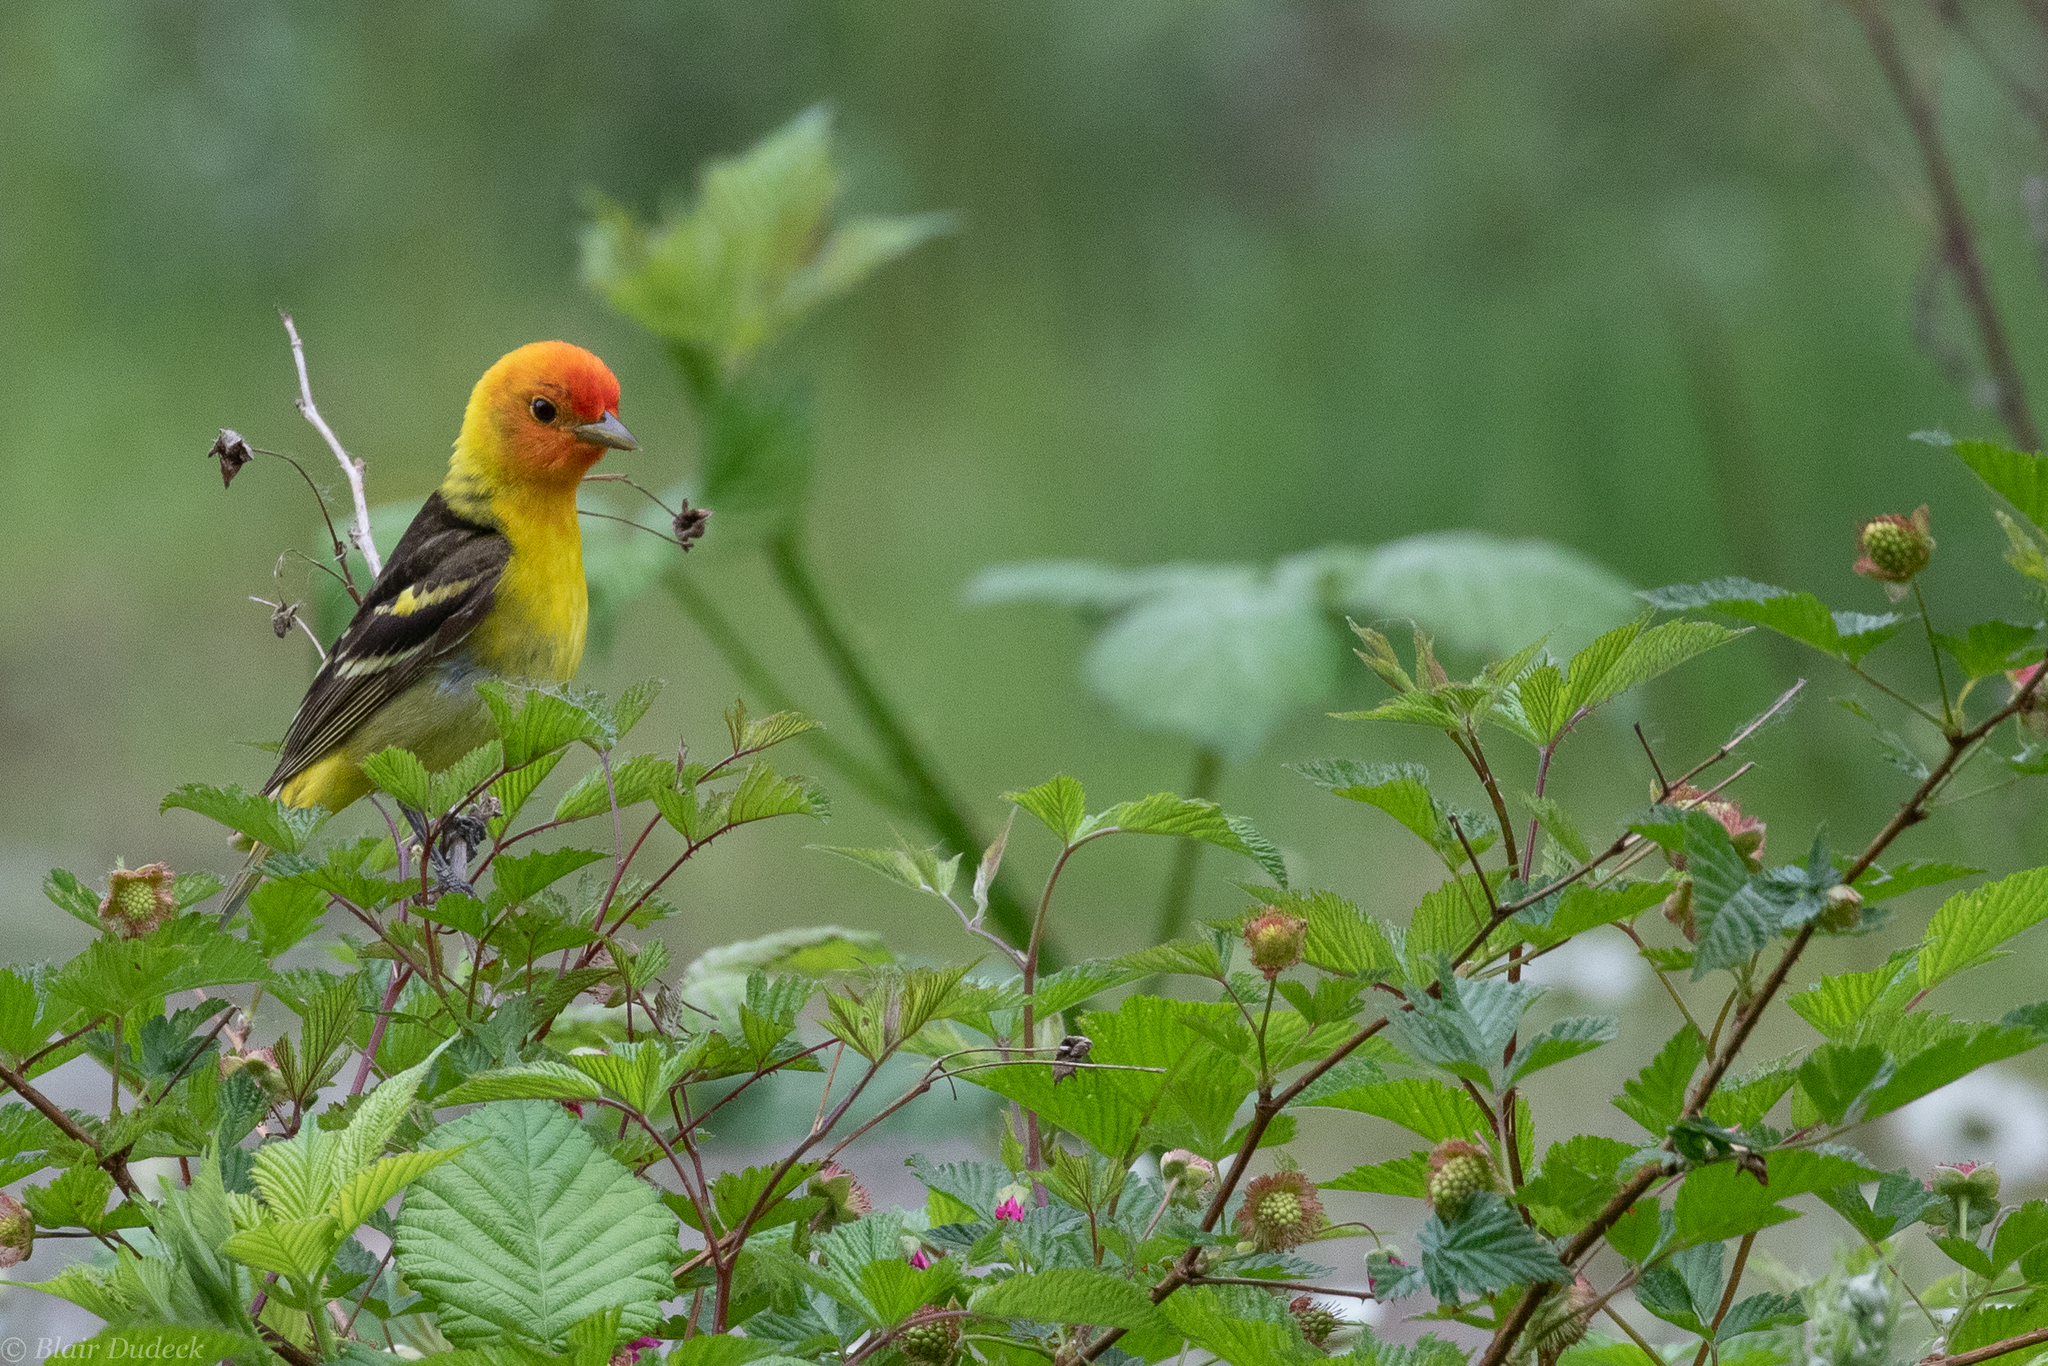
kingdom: Animalia
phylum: Chordata
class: Aves
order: Passeriformes
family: Cardinalidae
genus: Piranga
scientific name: Piranga ludoviciana
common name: Western tanager
